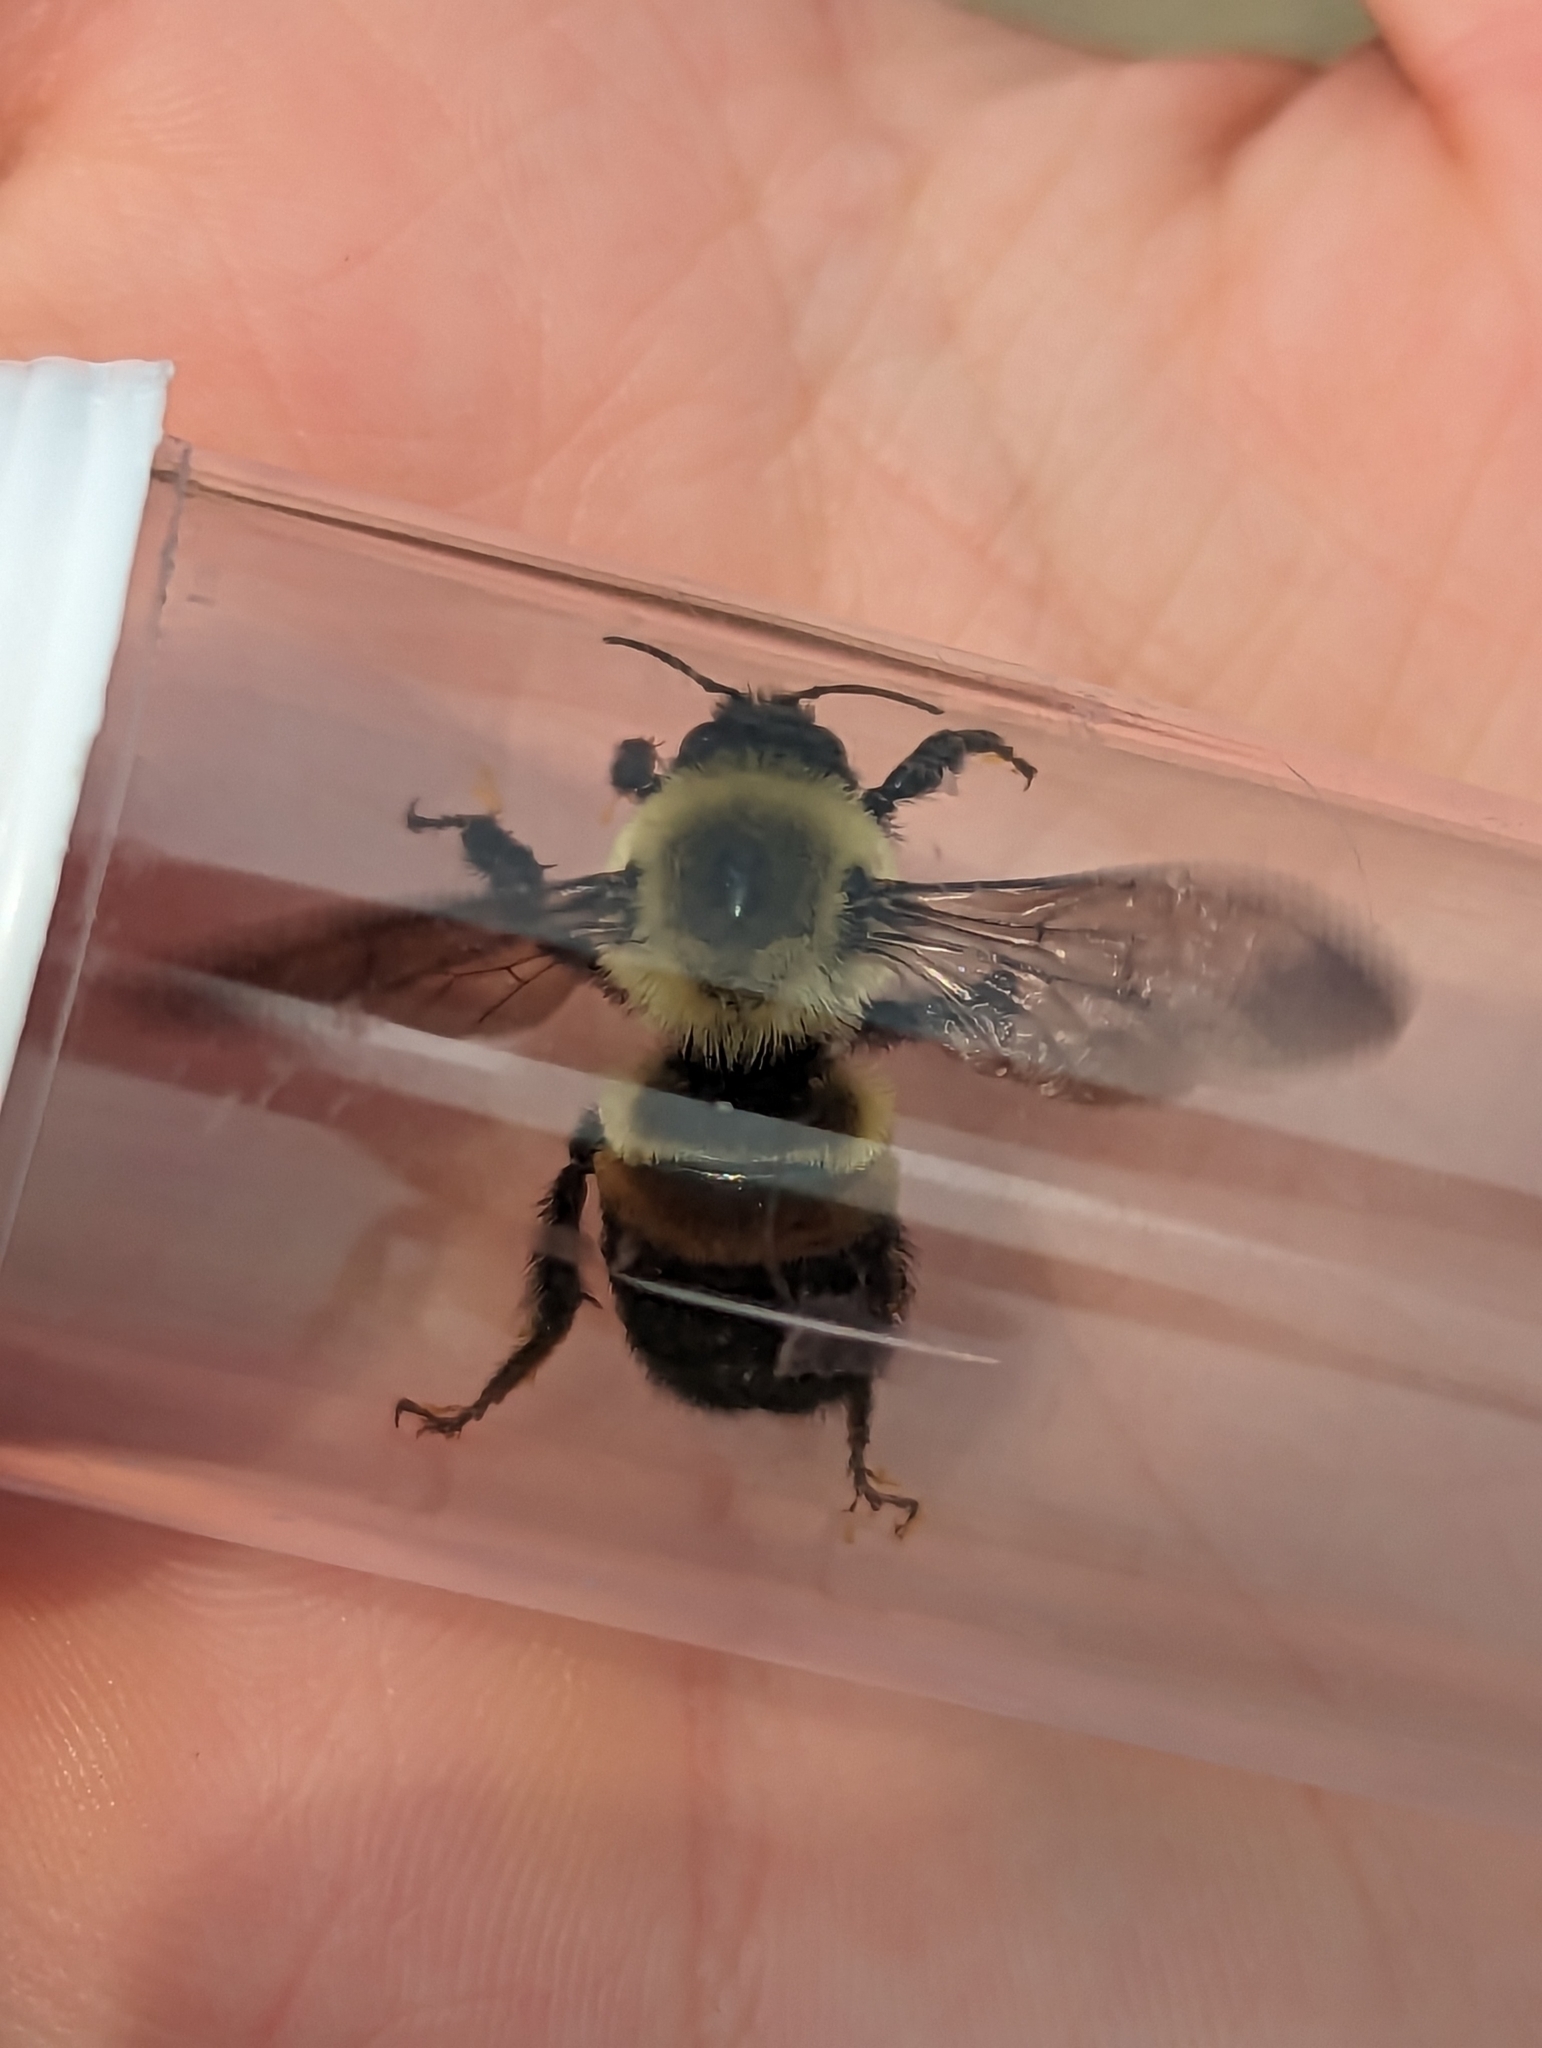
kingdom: Animalia
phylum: Arthropoda
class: Insecta
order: Hymenoptera
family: Apidae
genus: Bombus
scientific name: Bombus griseocollis
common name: Brown-belted bumble bee
